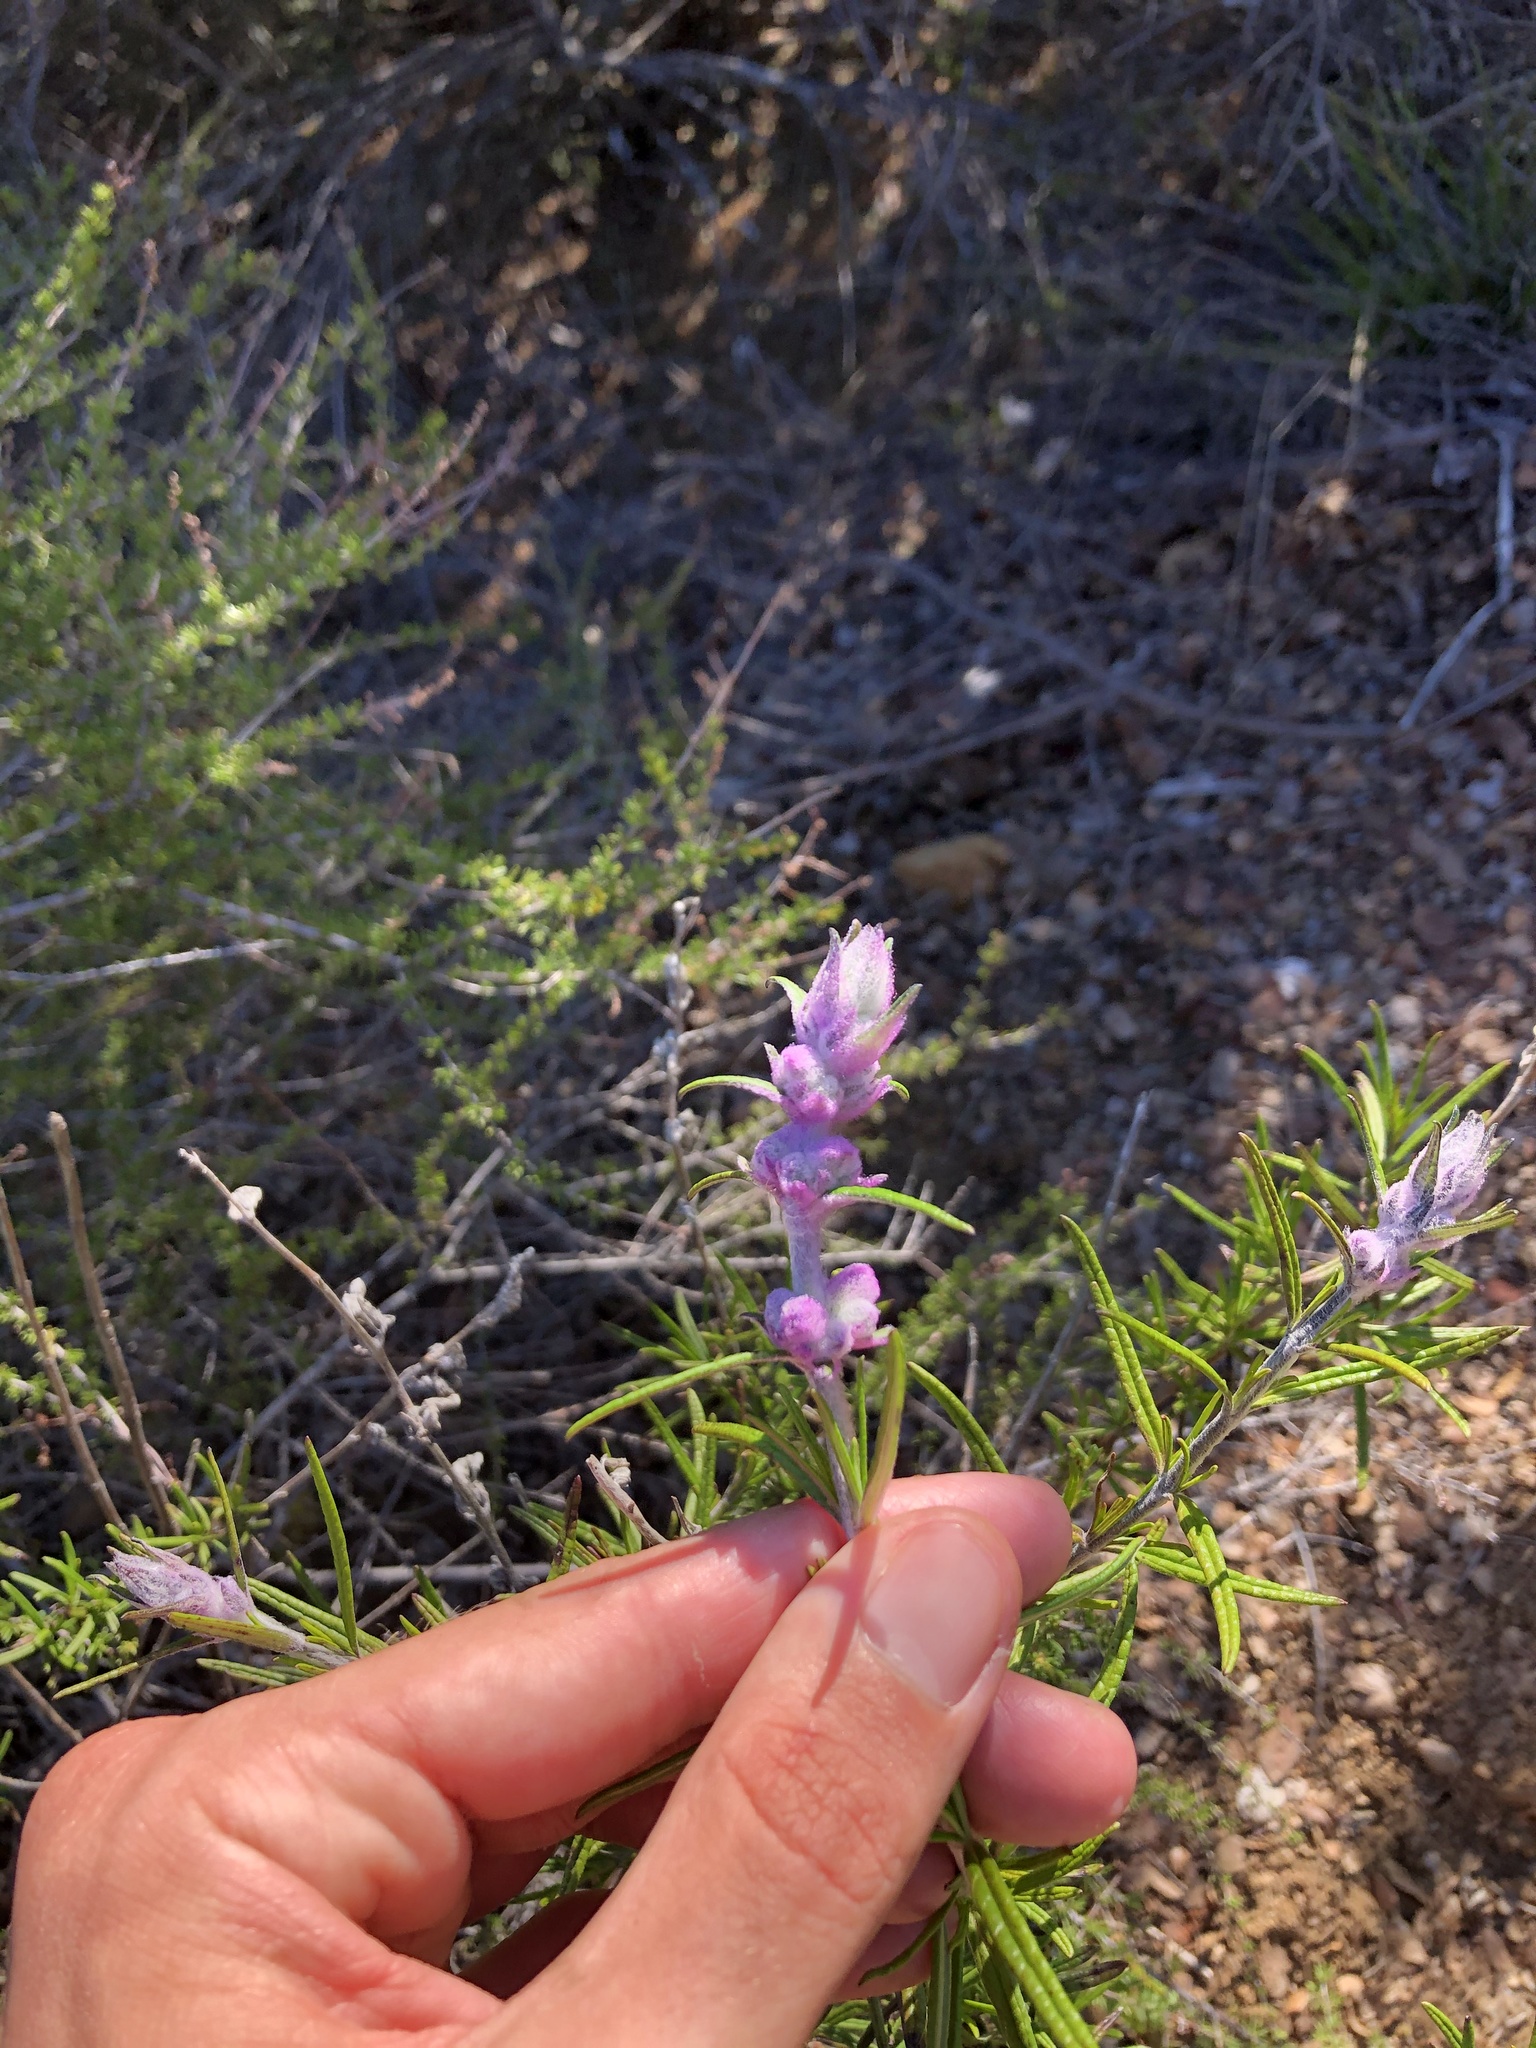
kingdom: Plantae
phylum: Tracheophyta
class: Magnoliopsida
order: Lamiales
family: Lamiaceae
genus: Trichostema
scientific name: Trichostema lanatum
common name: Woolly bluecurls
